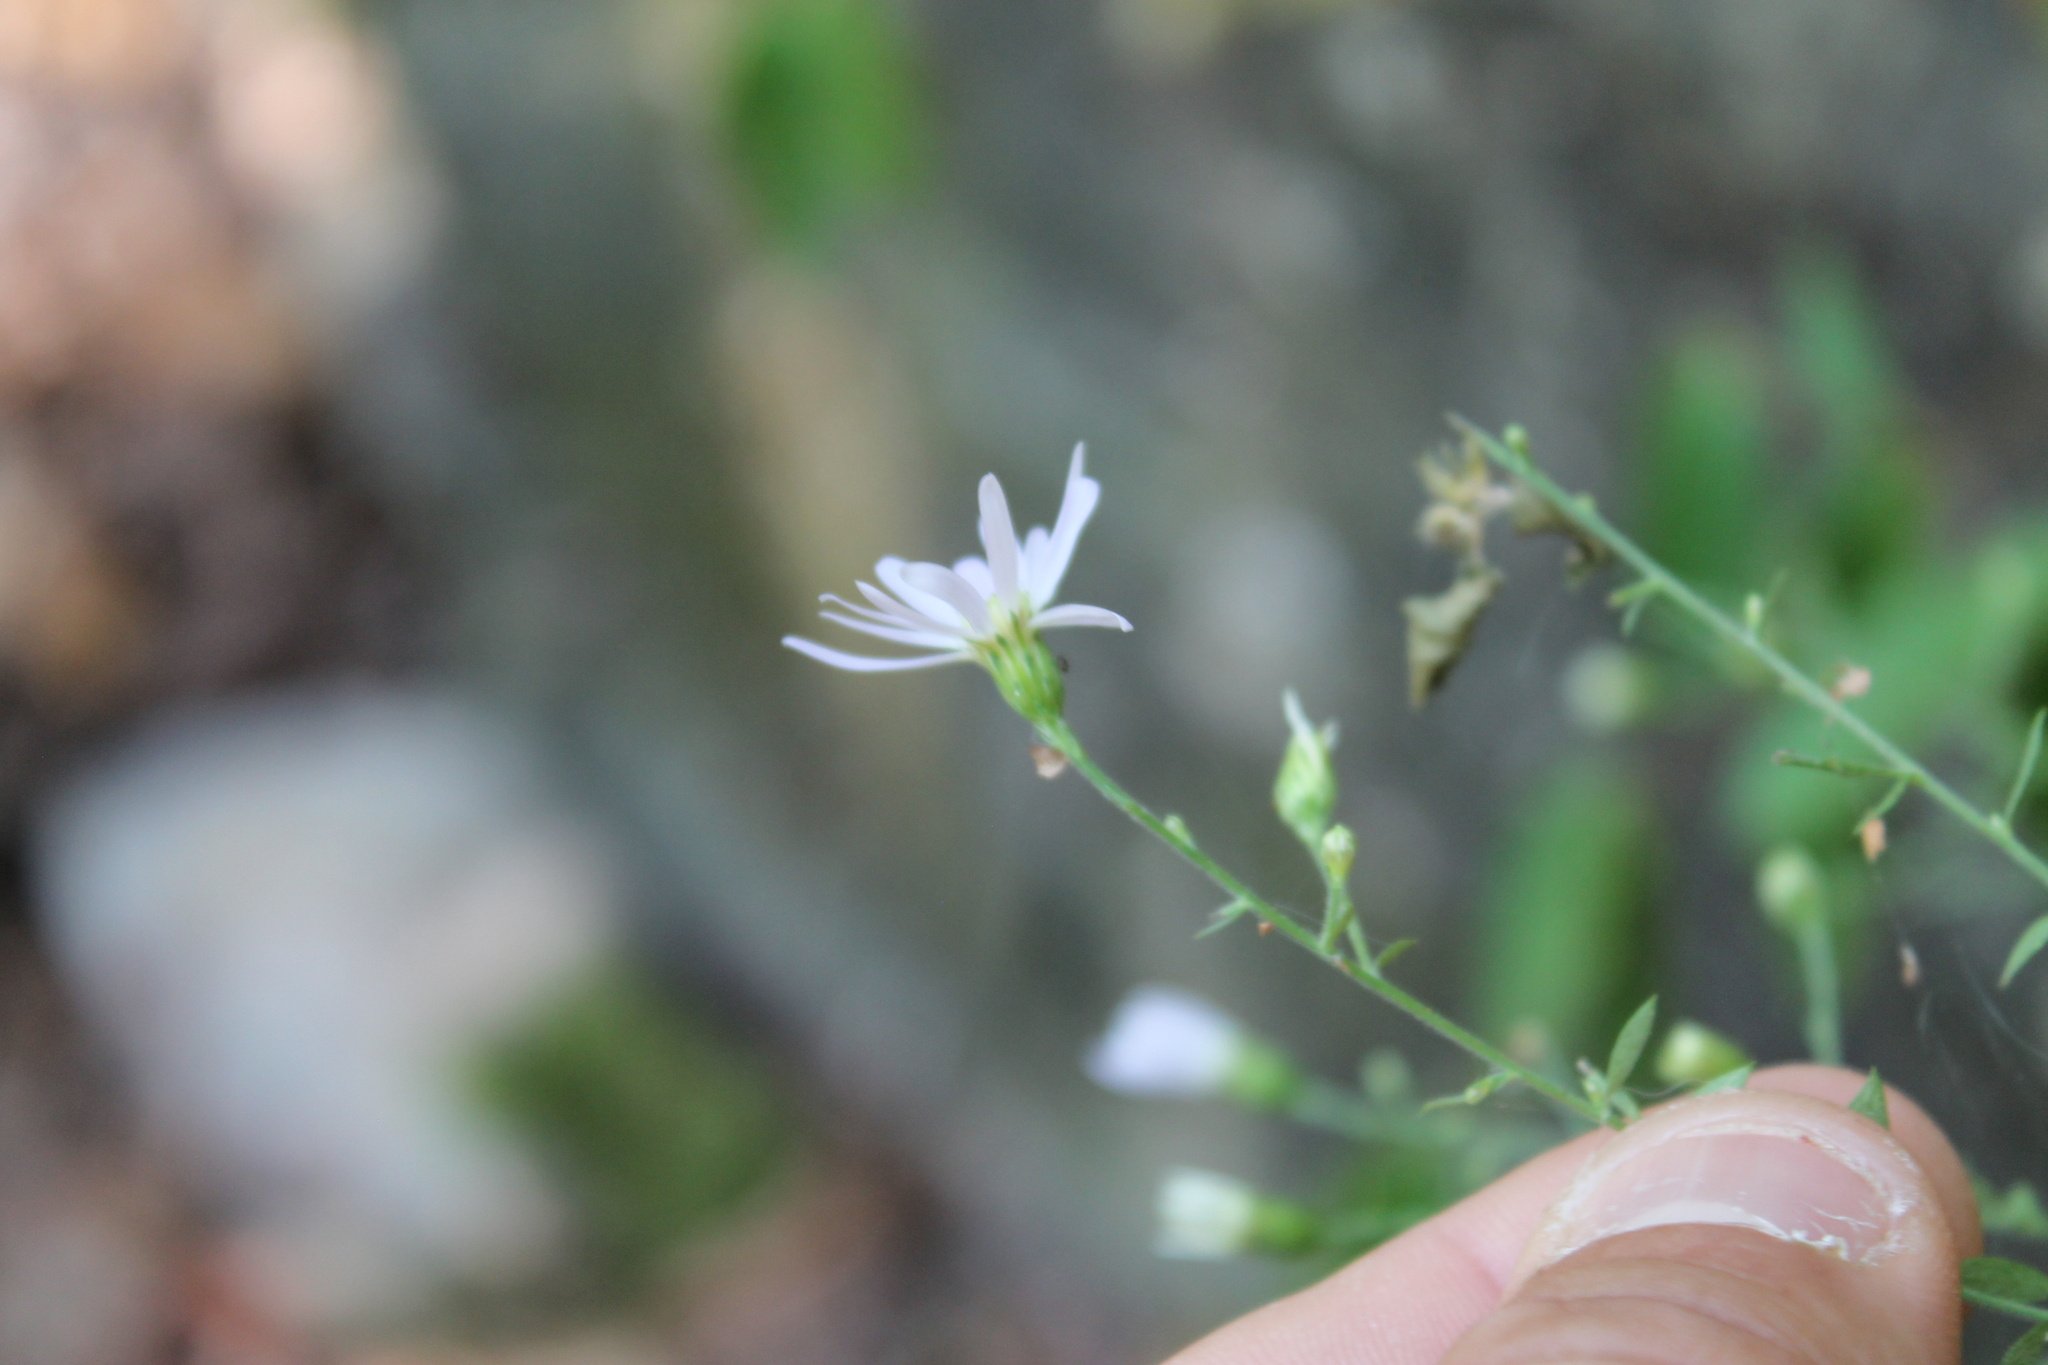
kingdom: Plantae
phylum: Tracheophyta
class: Magnoliopsida
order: Asterales
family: Asteraceae
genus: Symphyotrichum
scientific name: Symphyotrichum shortii
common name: Short's aster
